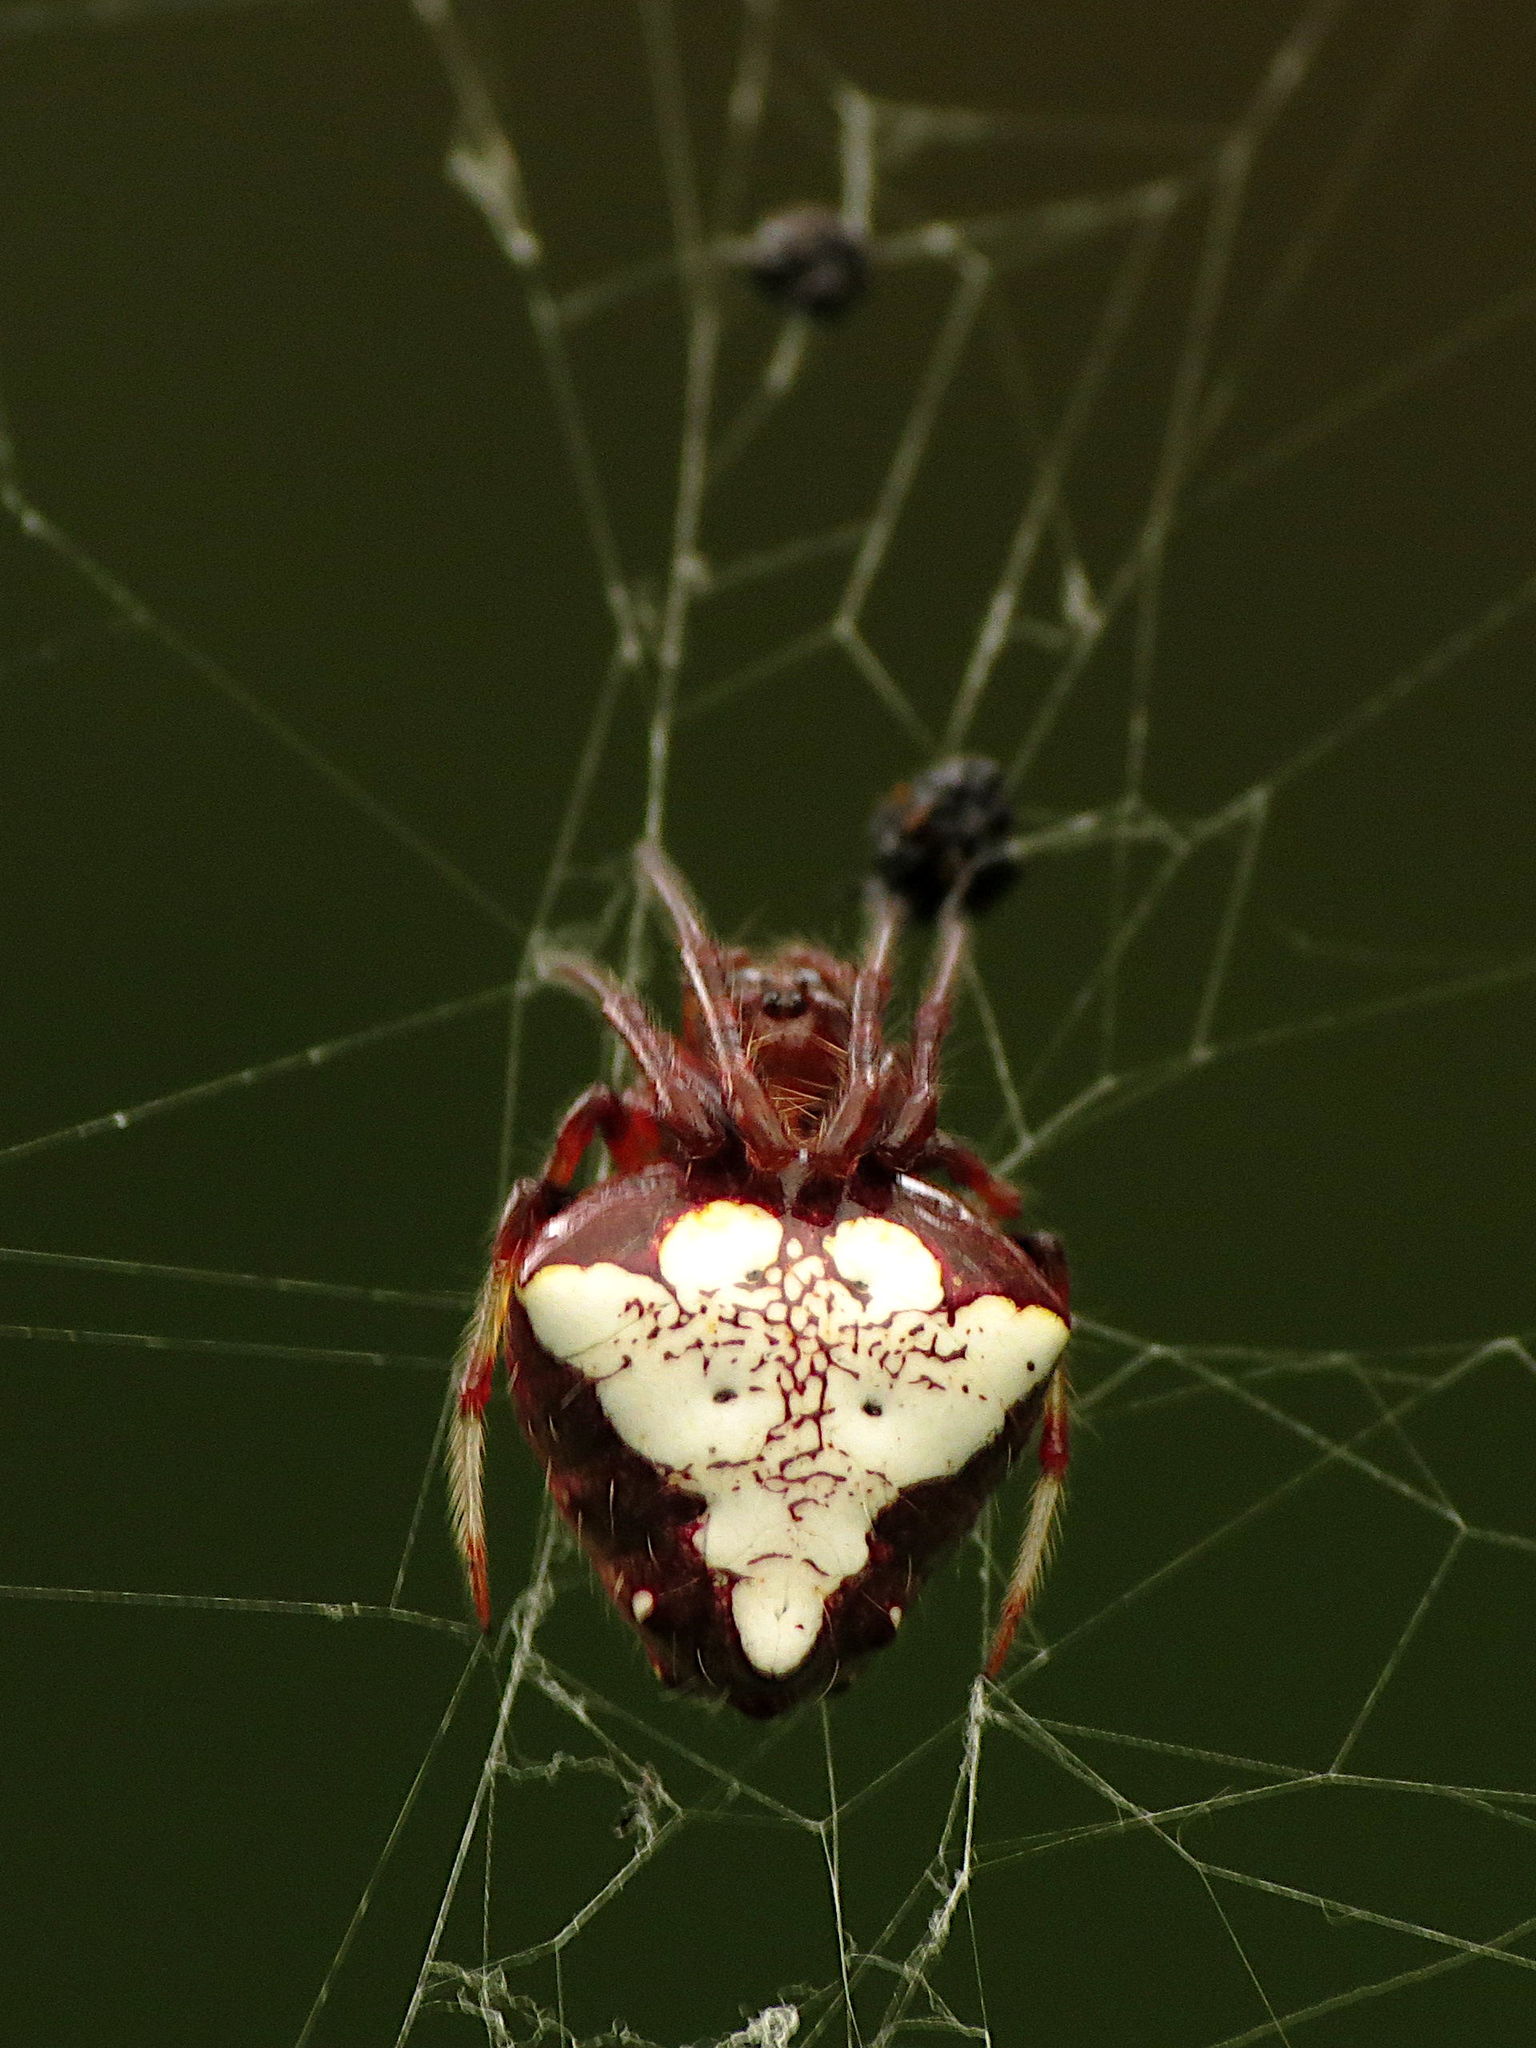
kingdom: Animalia
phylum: Arthropoda
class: Arachnida
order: Araneae
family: Araneidae
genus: Verrucosa
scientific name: Verrucosa arenata
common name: Orb weavers
